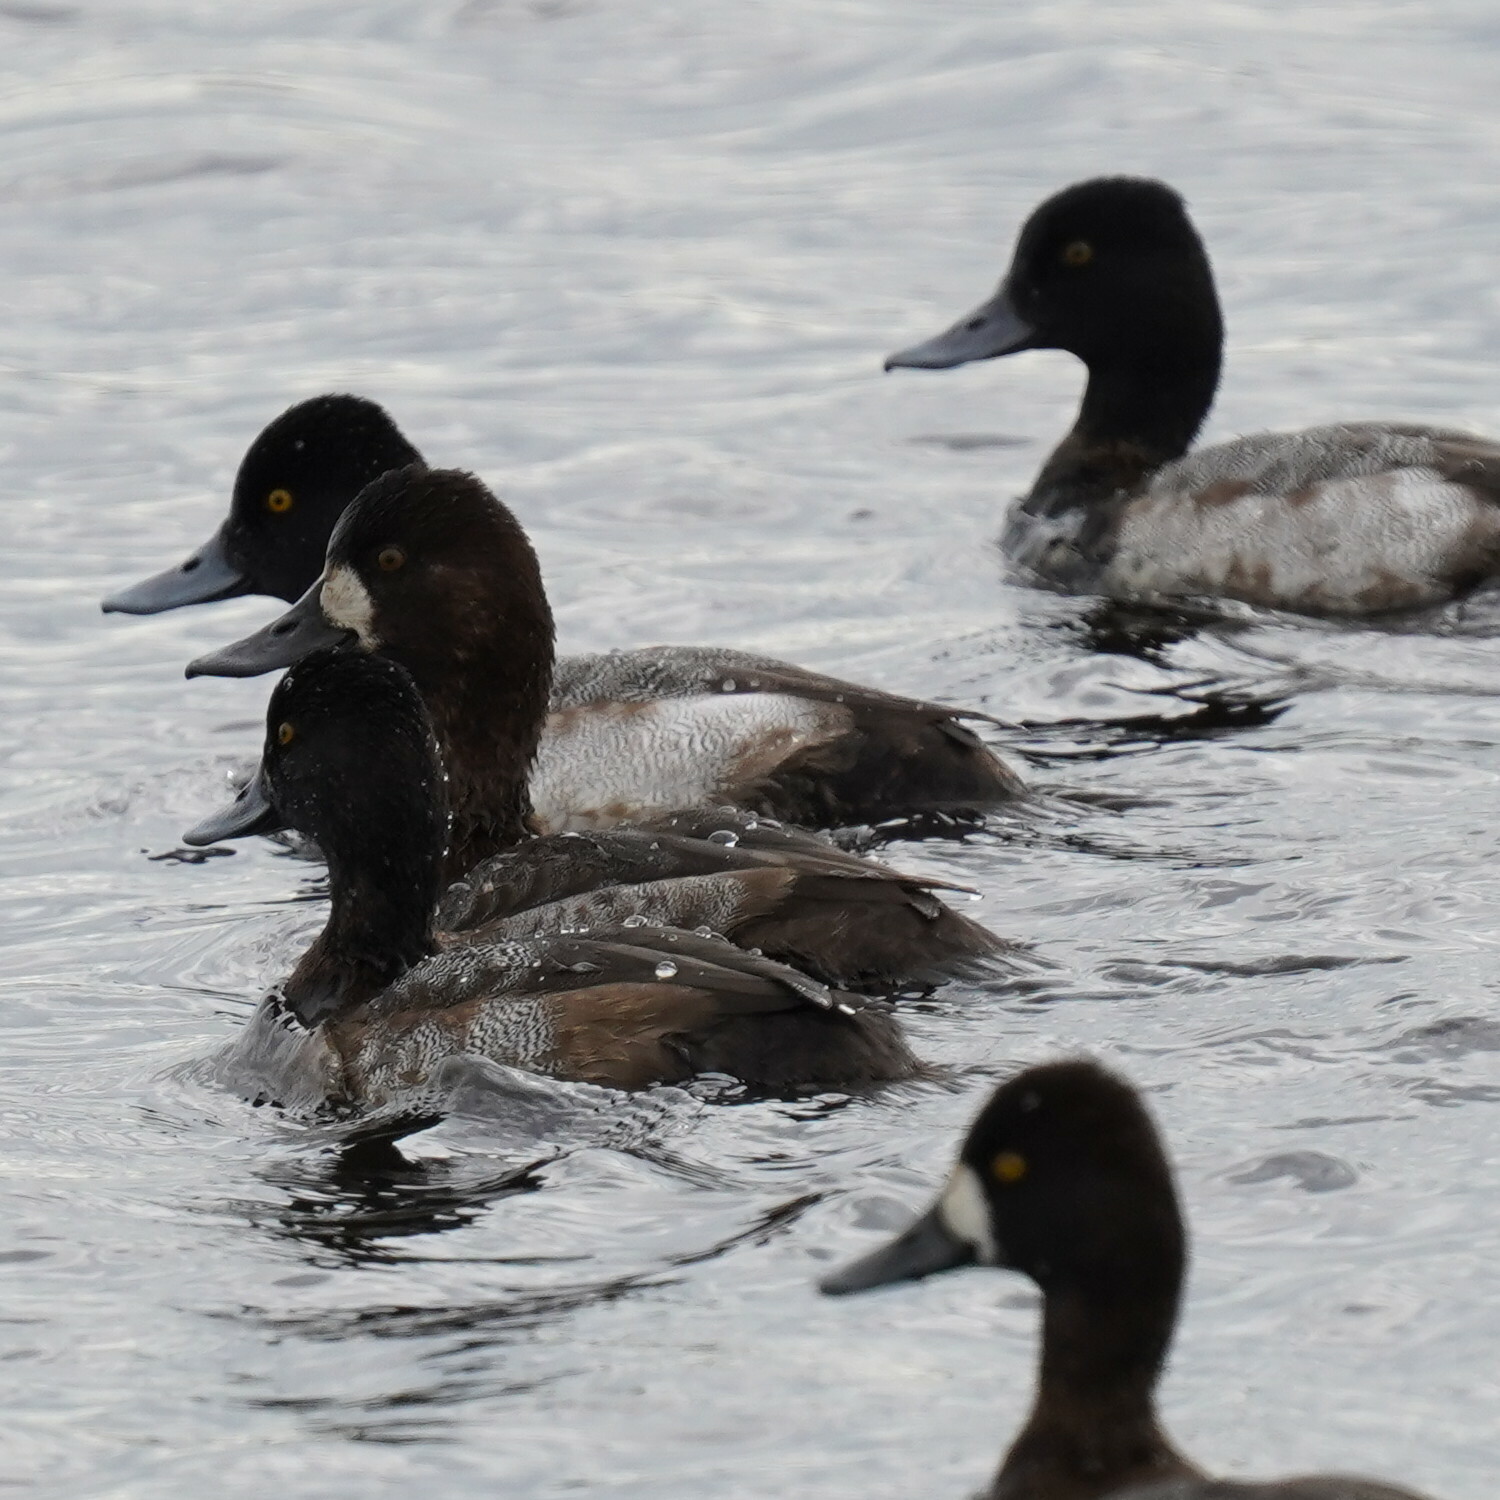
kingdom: Animalia
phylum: Chordata
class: Aves
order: Anseriformes
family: Anatidae
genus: Aythya
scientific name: Aythya affinis
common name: Lesser scaup
